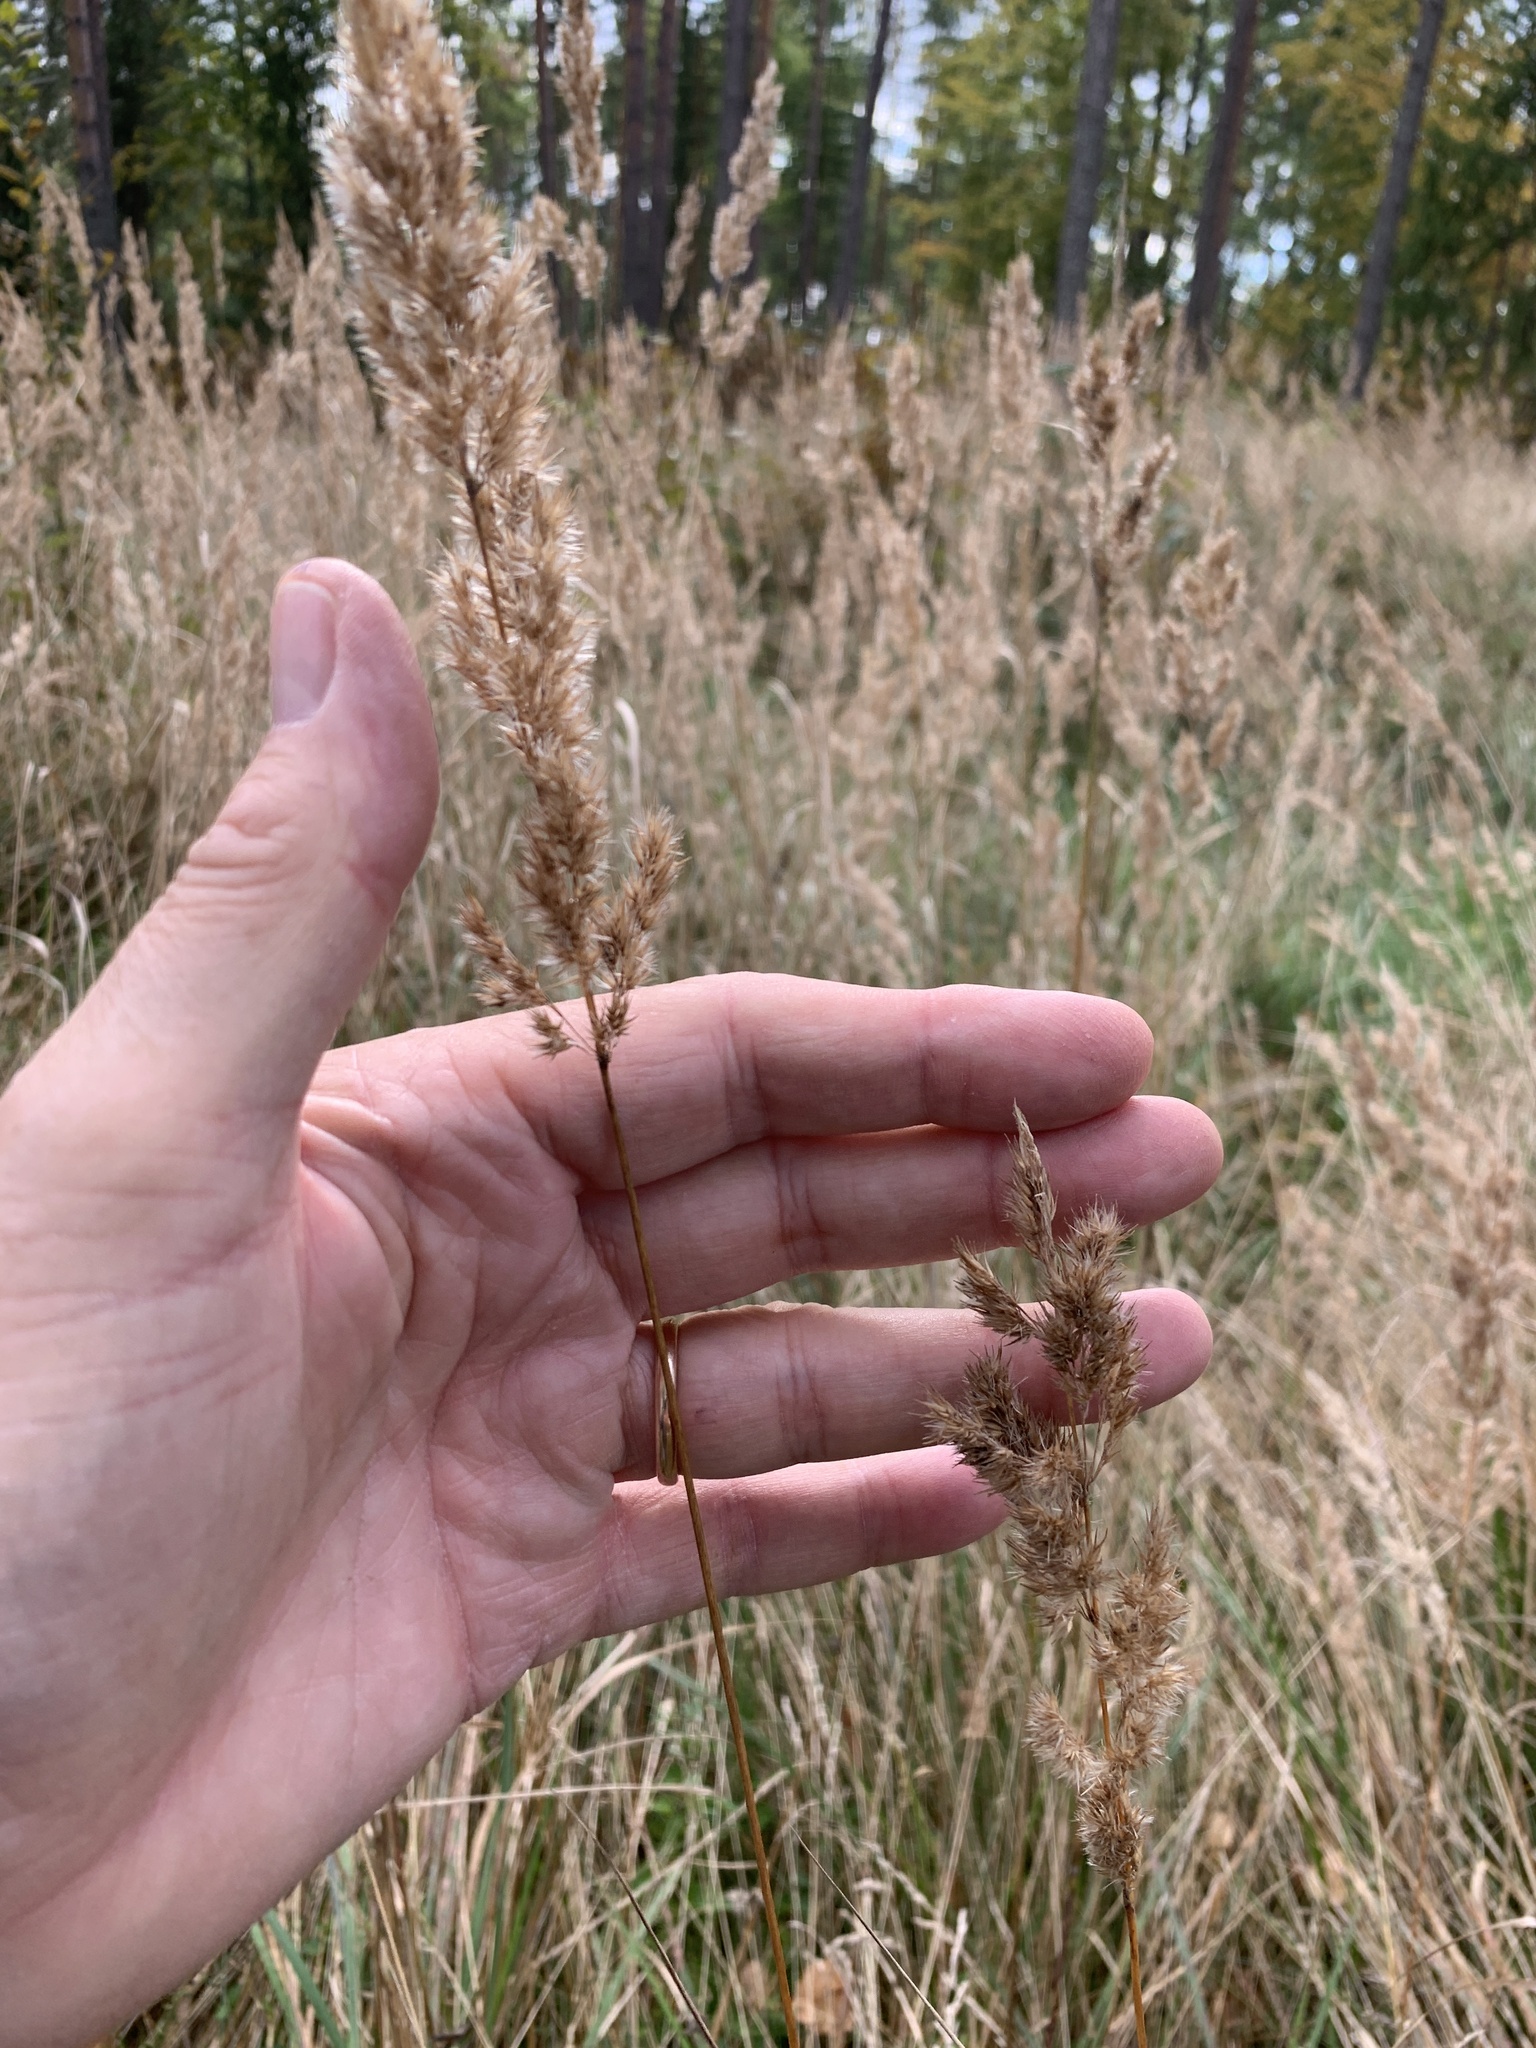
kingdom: Plantae
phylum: Tracheophyta
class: Liliopsida
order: Poales
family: Poaceae
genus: Calamagrostis
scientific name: Calamagrostis epigejos
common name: Wood small-reed
